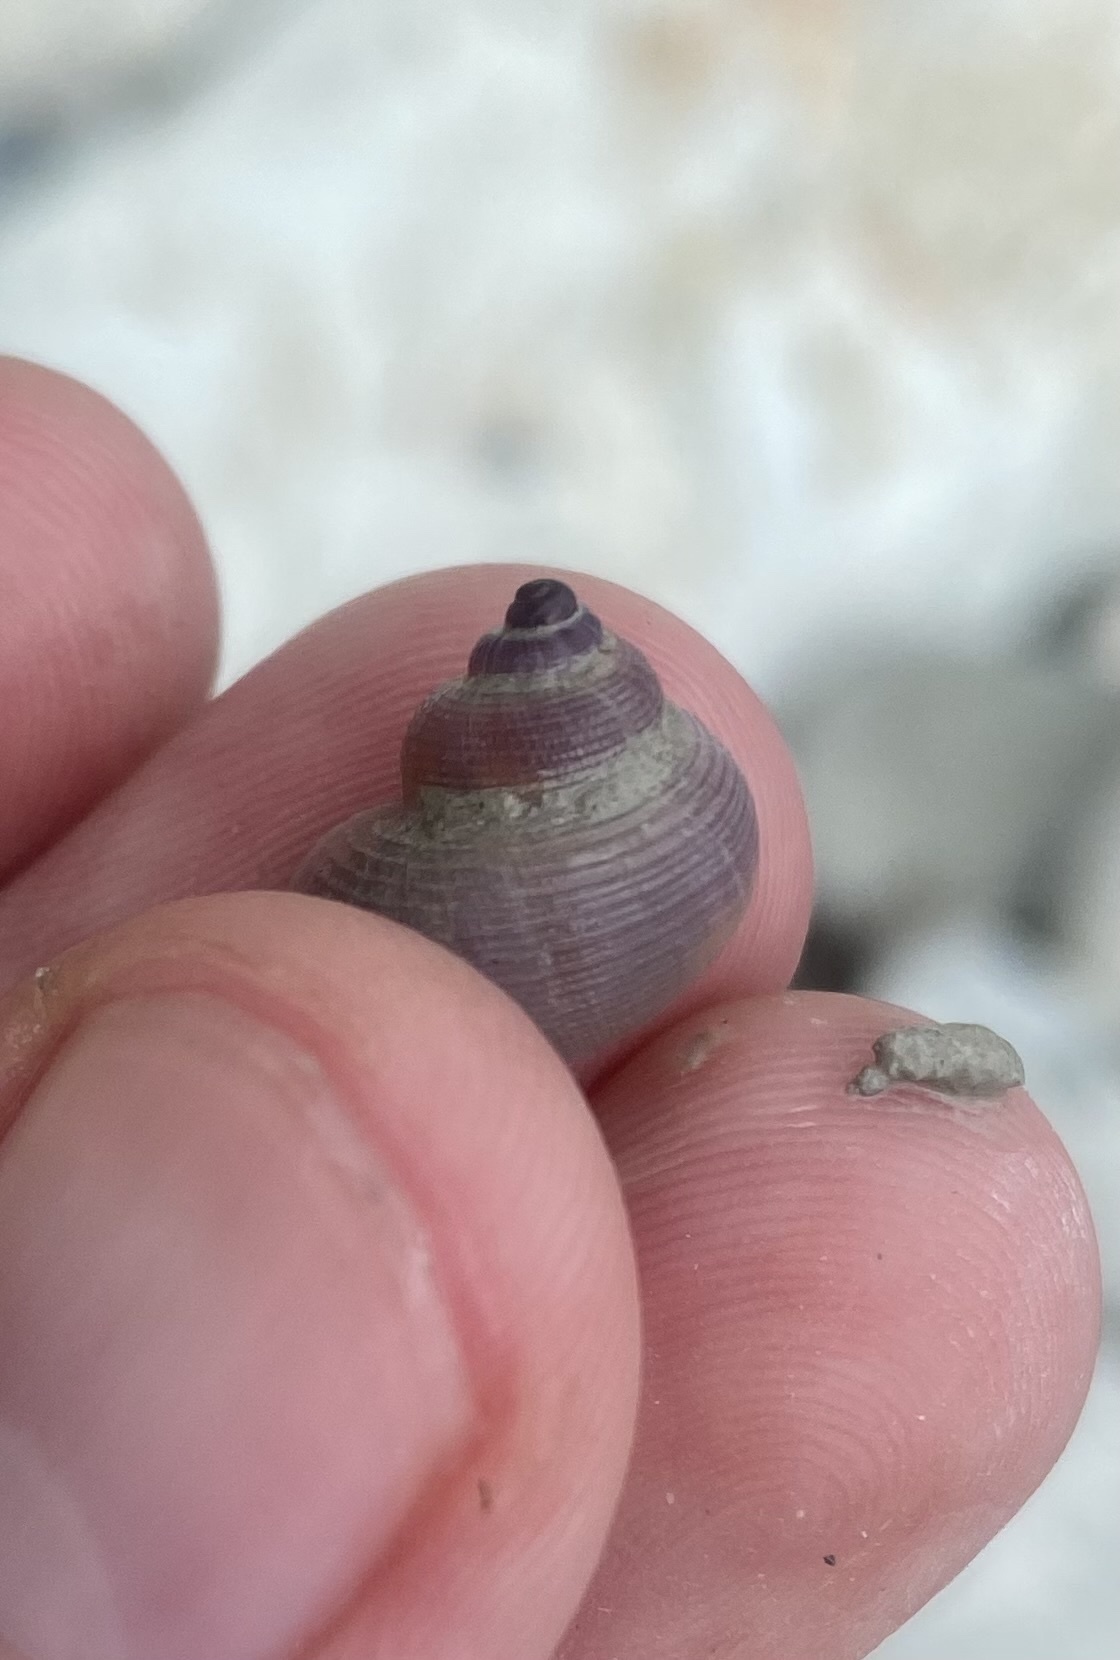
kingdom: Animalia
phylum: Mollusca
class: Gastropoda
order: Littorinimorpha
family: Pomatiidae
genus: Pomatias
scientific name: Pomatias rivularis
